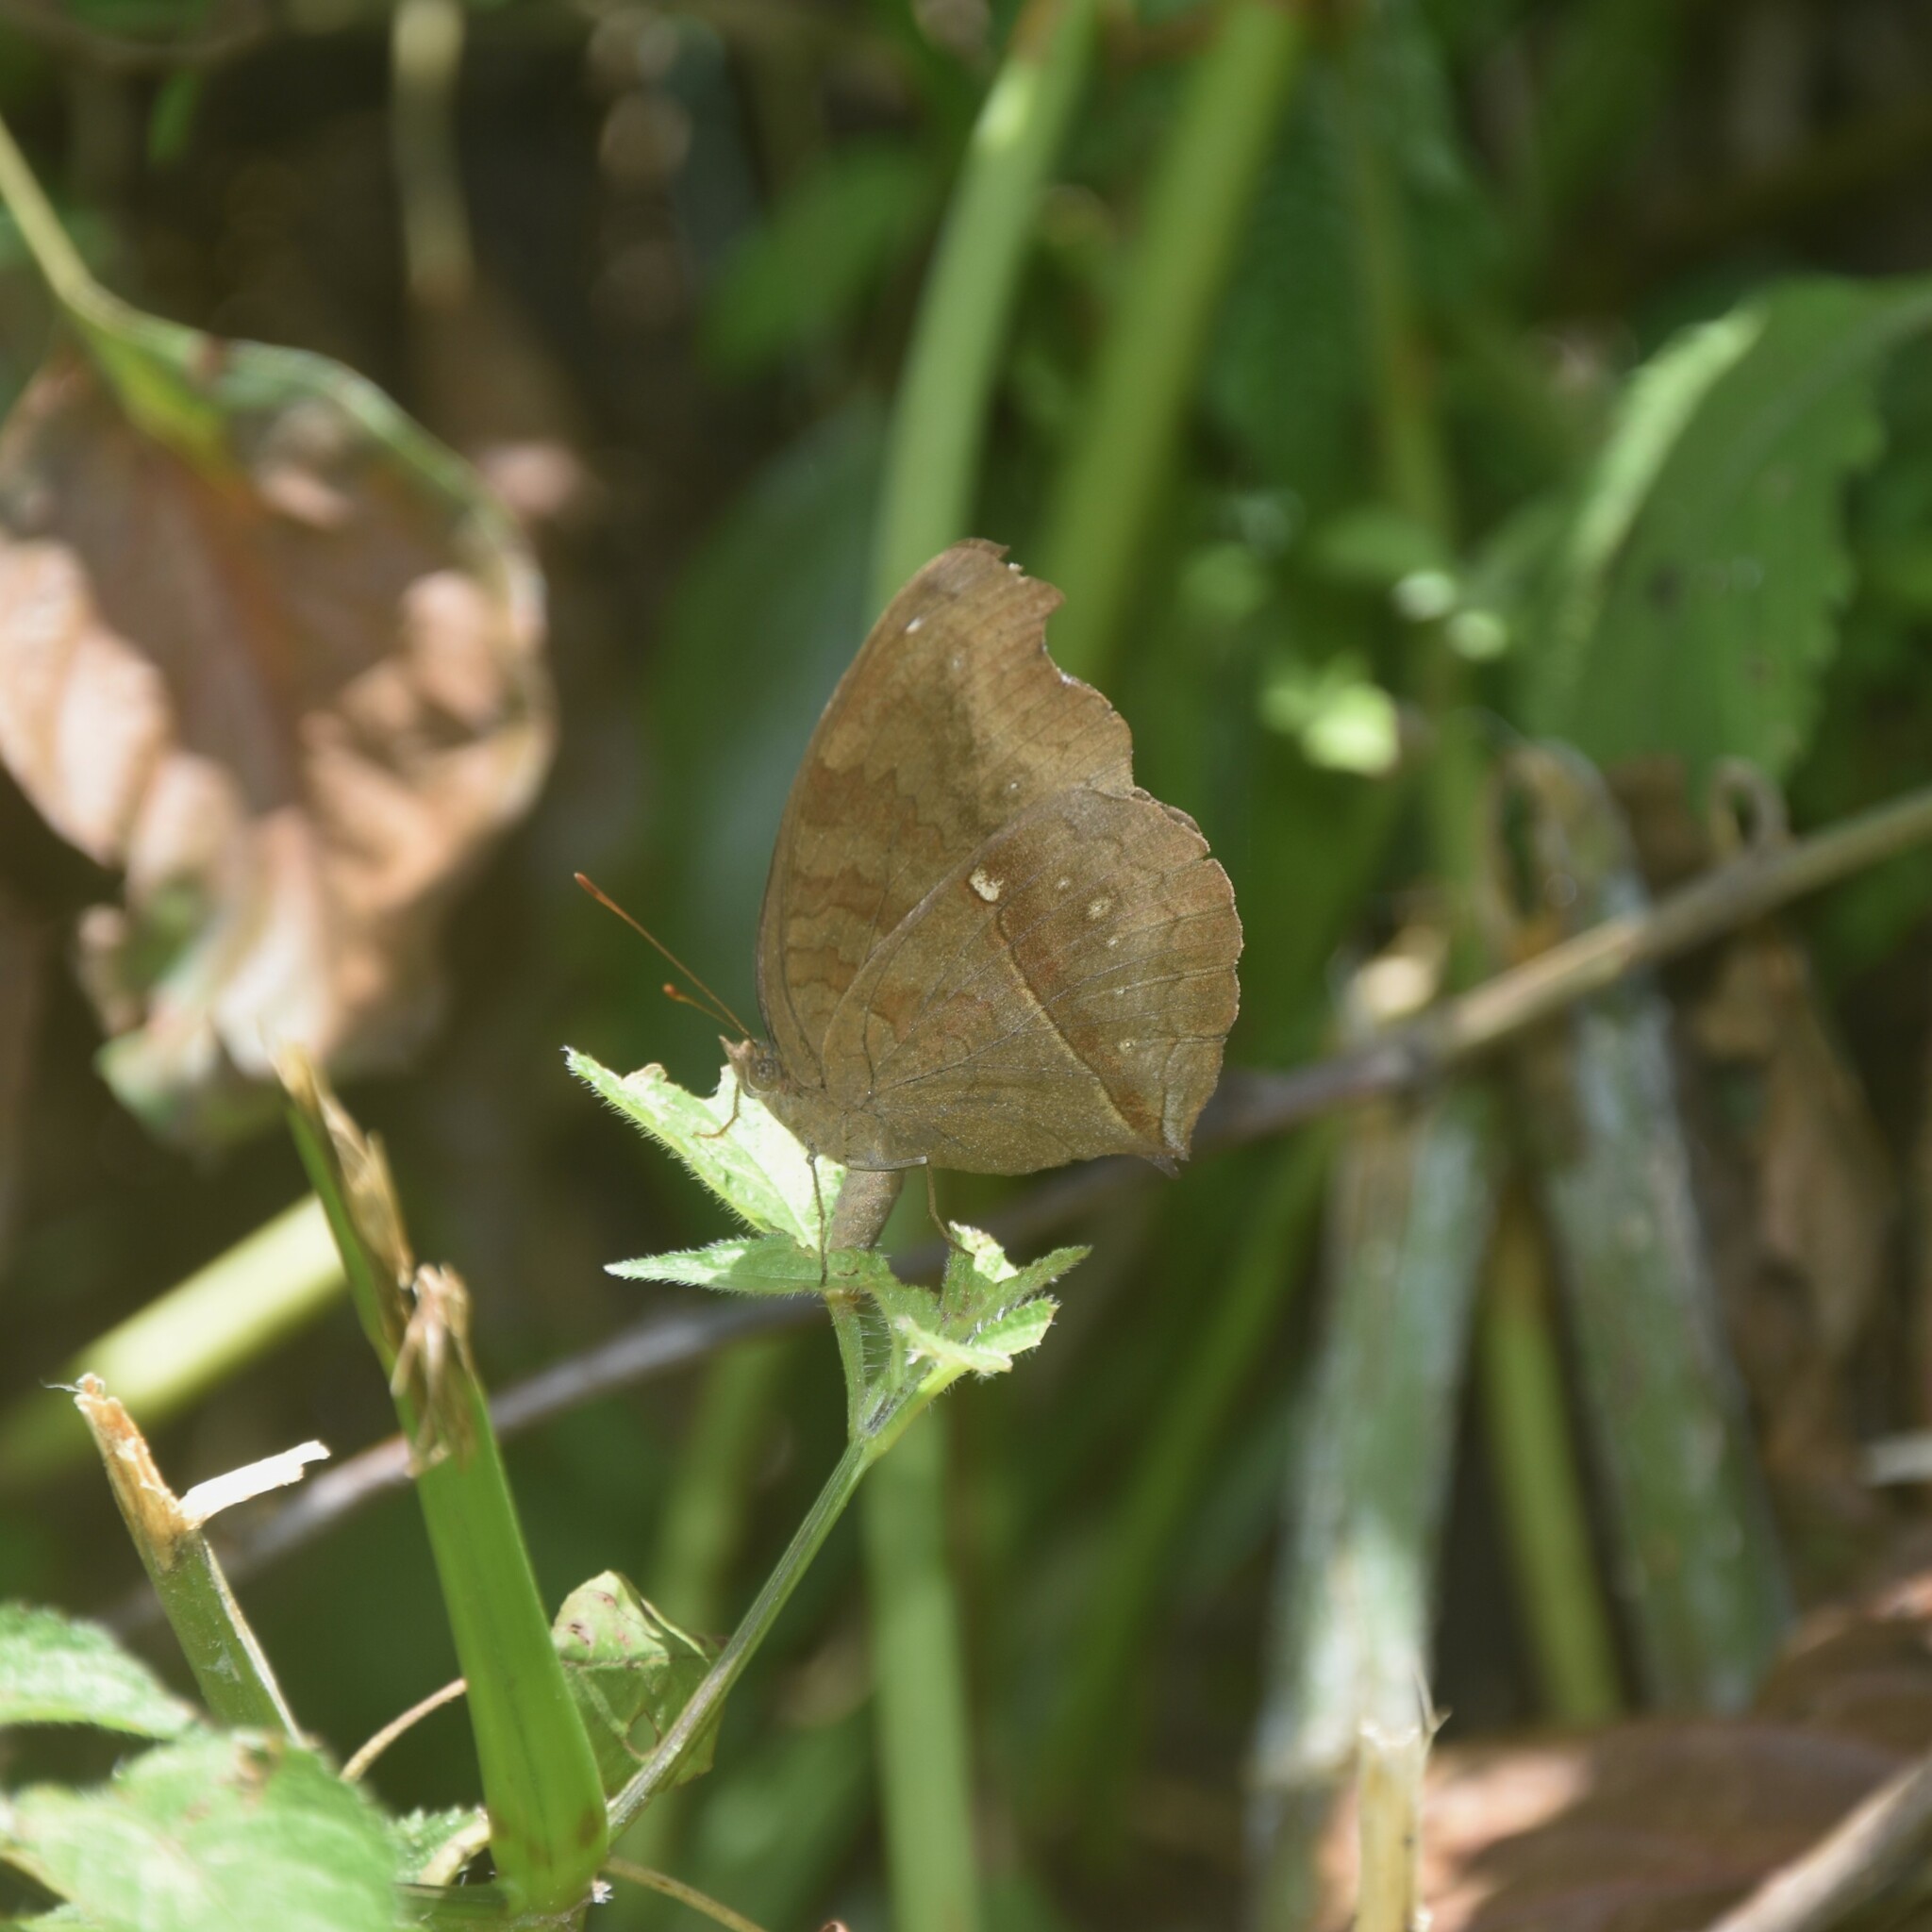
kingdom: Animalia
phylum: Arthropoda
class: Insecta
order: Lepidoptera
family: Nymphalidae
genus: Junonia
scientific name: Junonia iphita
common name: Chocolate pansy
